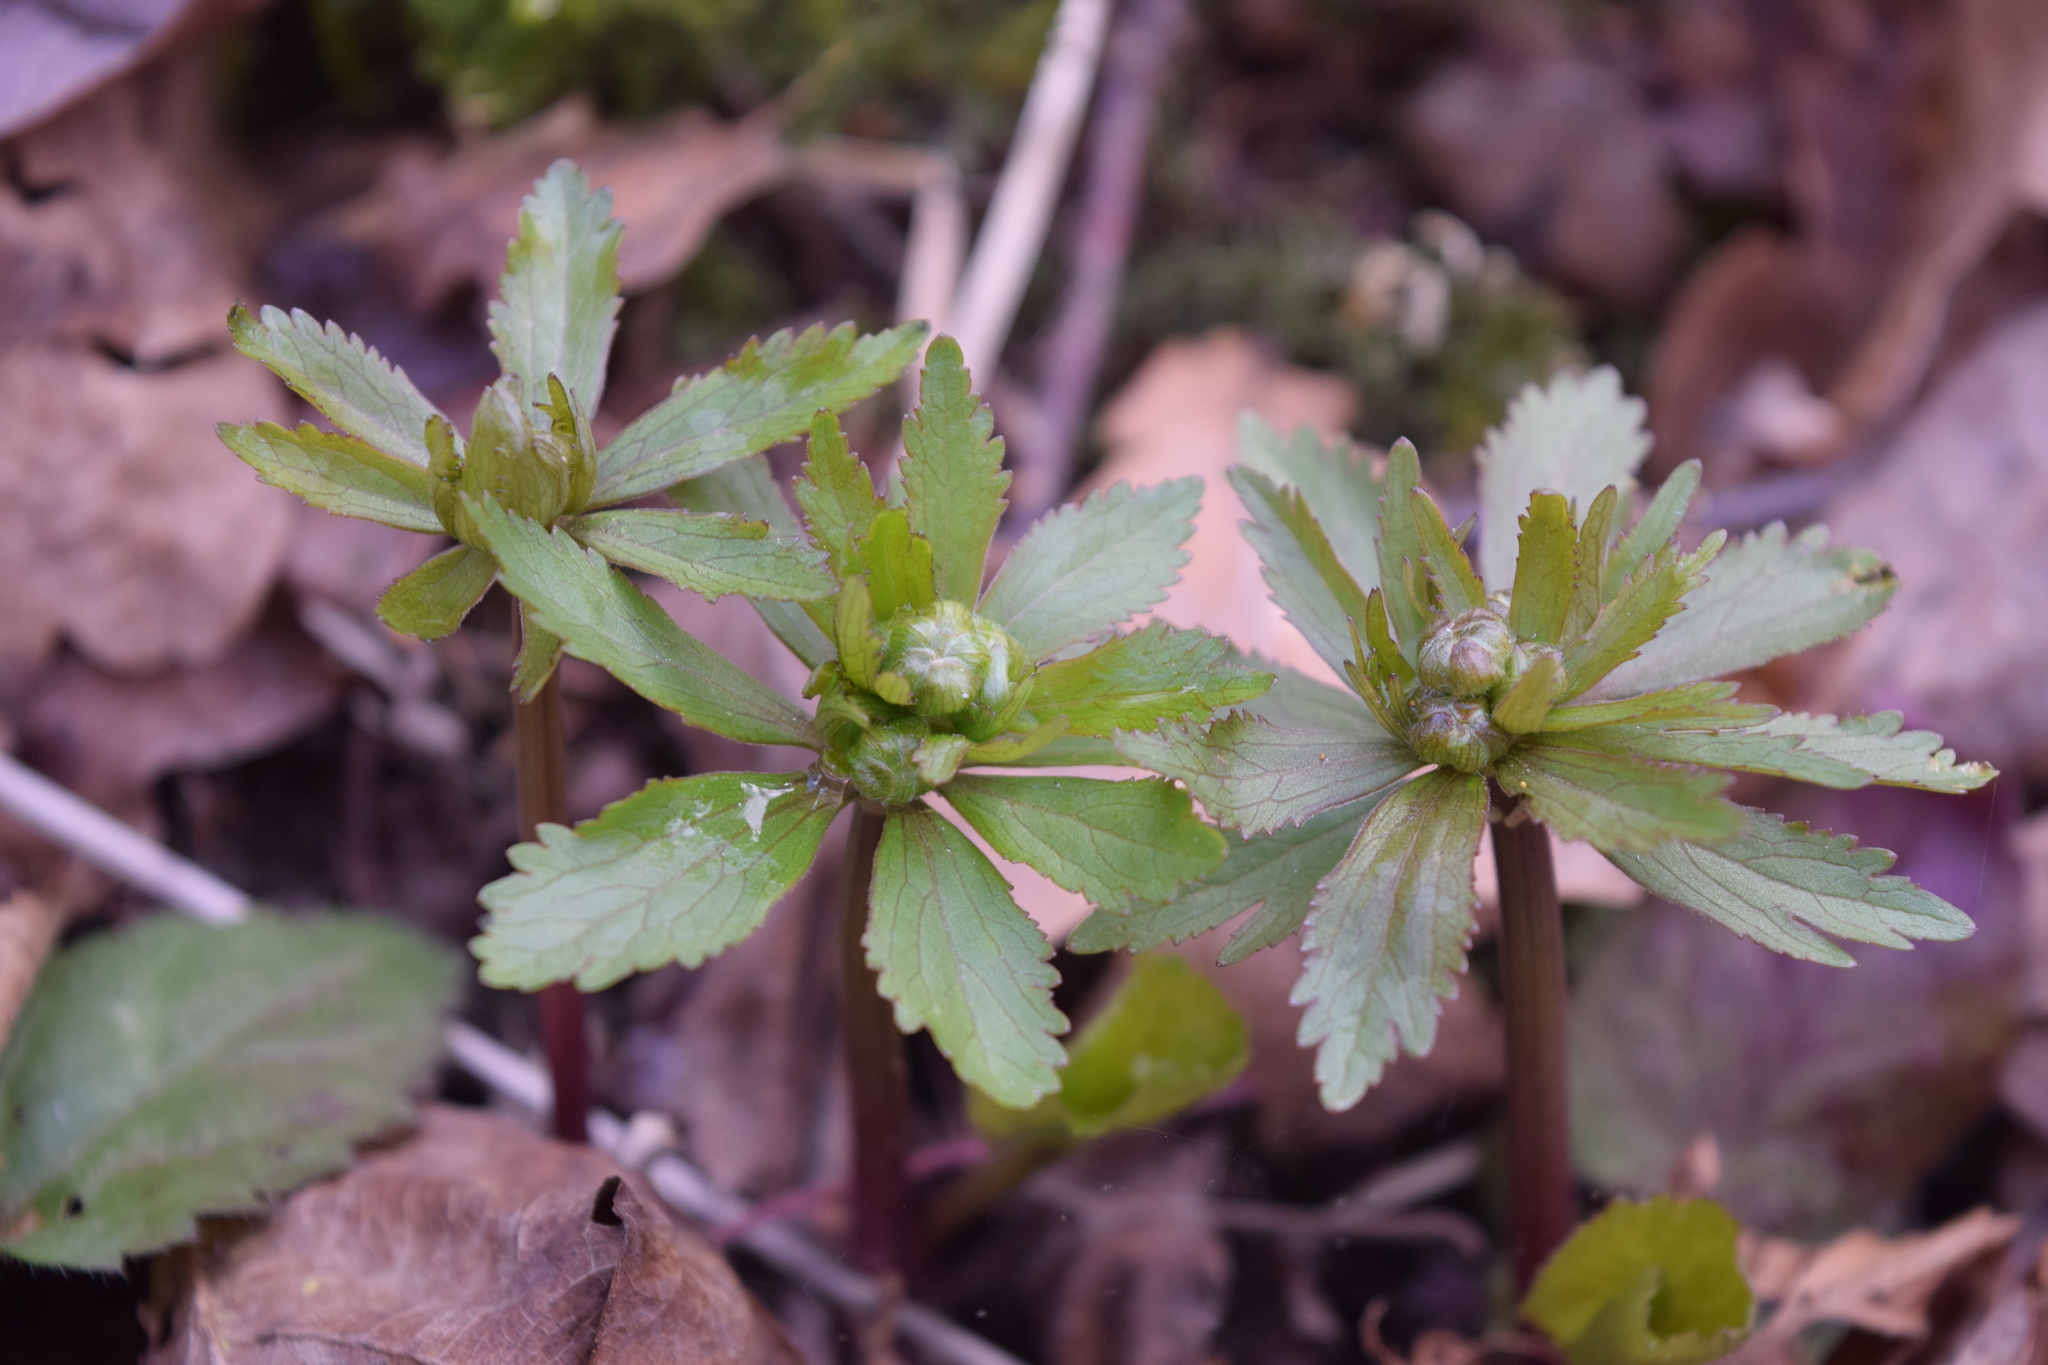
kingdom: Plantae
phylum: Tracheophyta
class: Magnoliopsida
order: Ranunculales
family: Ranunculaceae
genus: Ranunculus
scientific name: Ranunculus cassubicus
